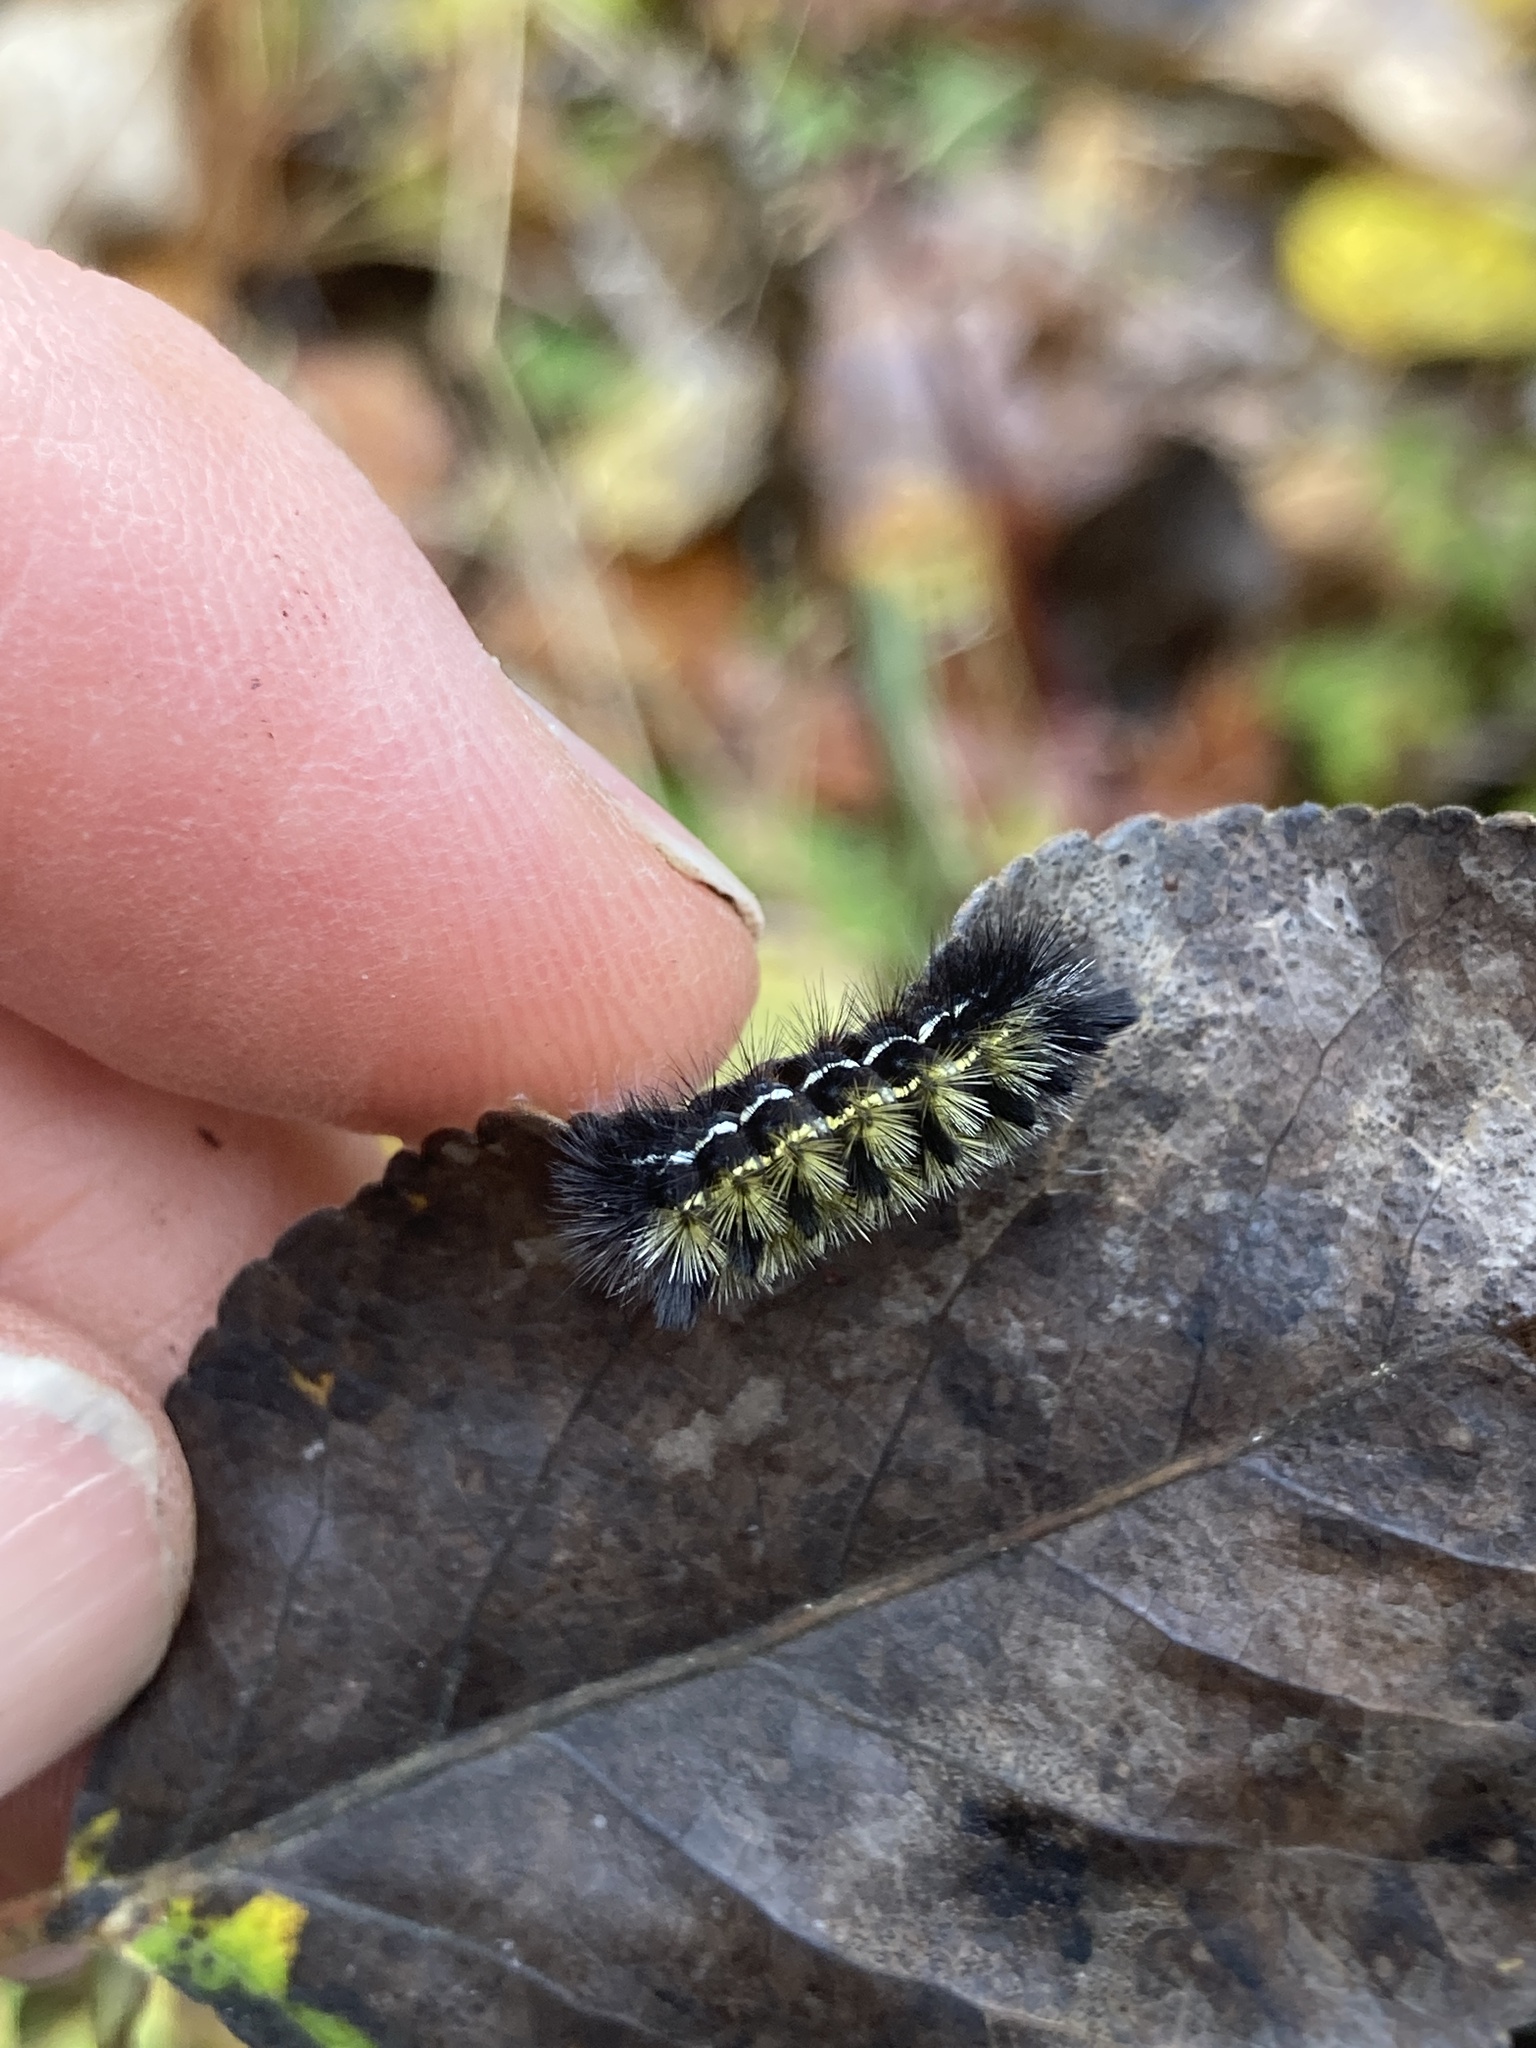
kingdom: Animalia
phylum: Arthropoda
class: Insecta
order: Lepidoptera
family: Erebidae
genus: Ctenucha
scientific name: Ctenucha virginica
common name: Virginia ctenucha moth
